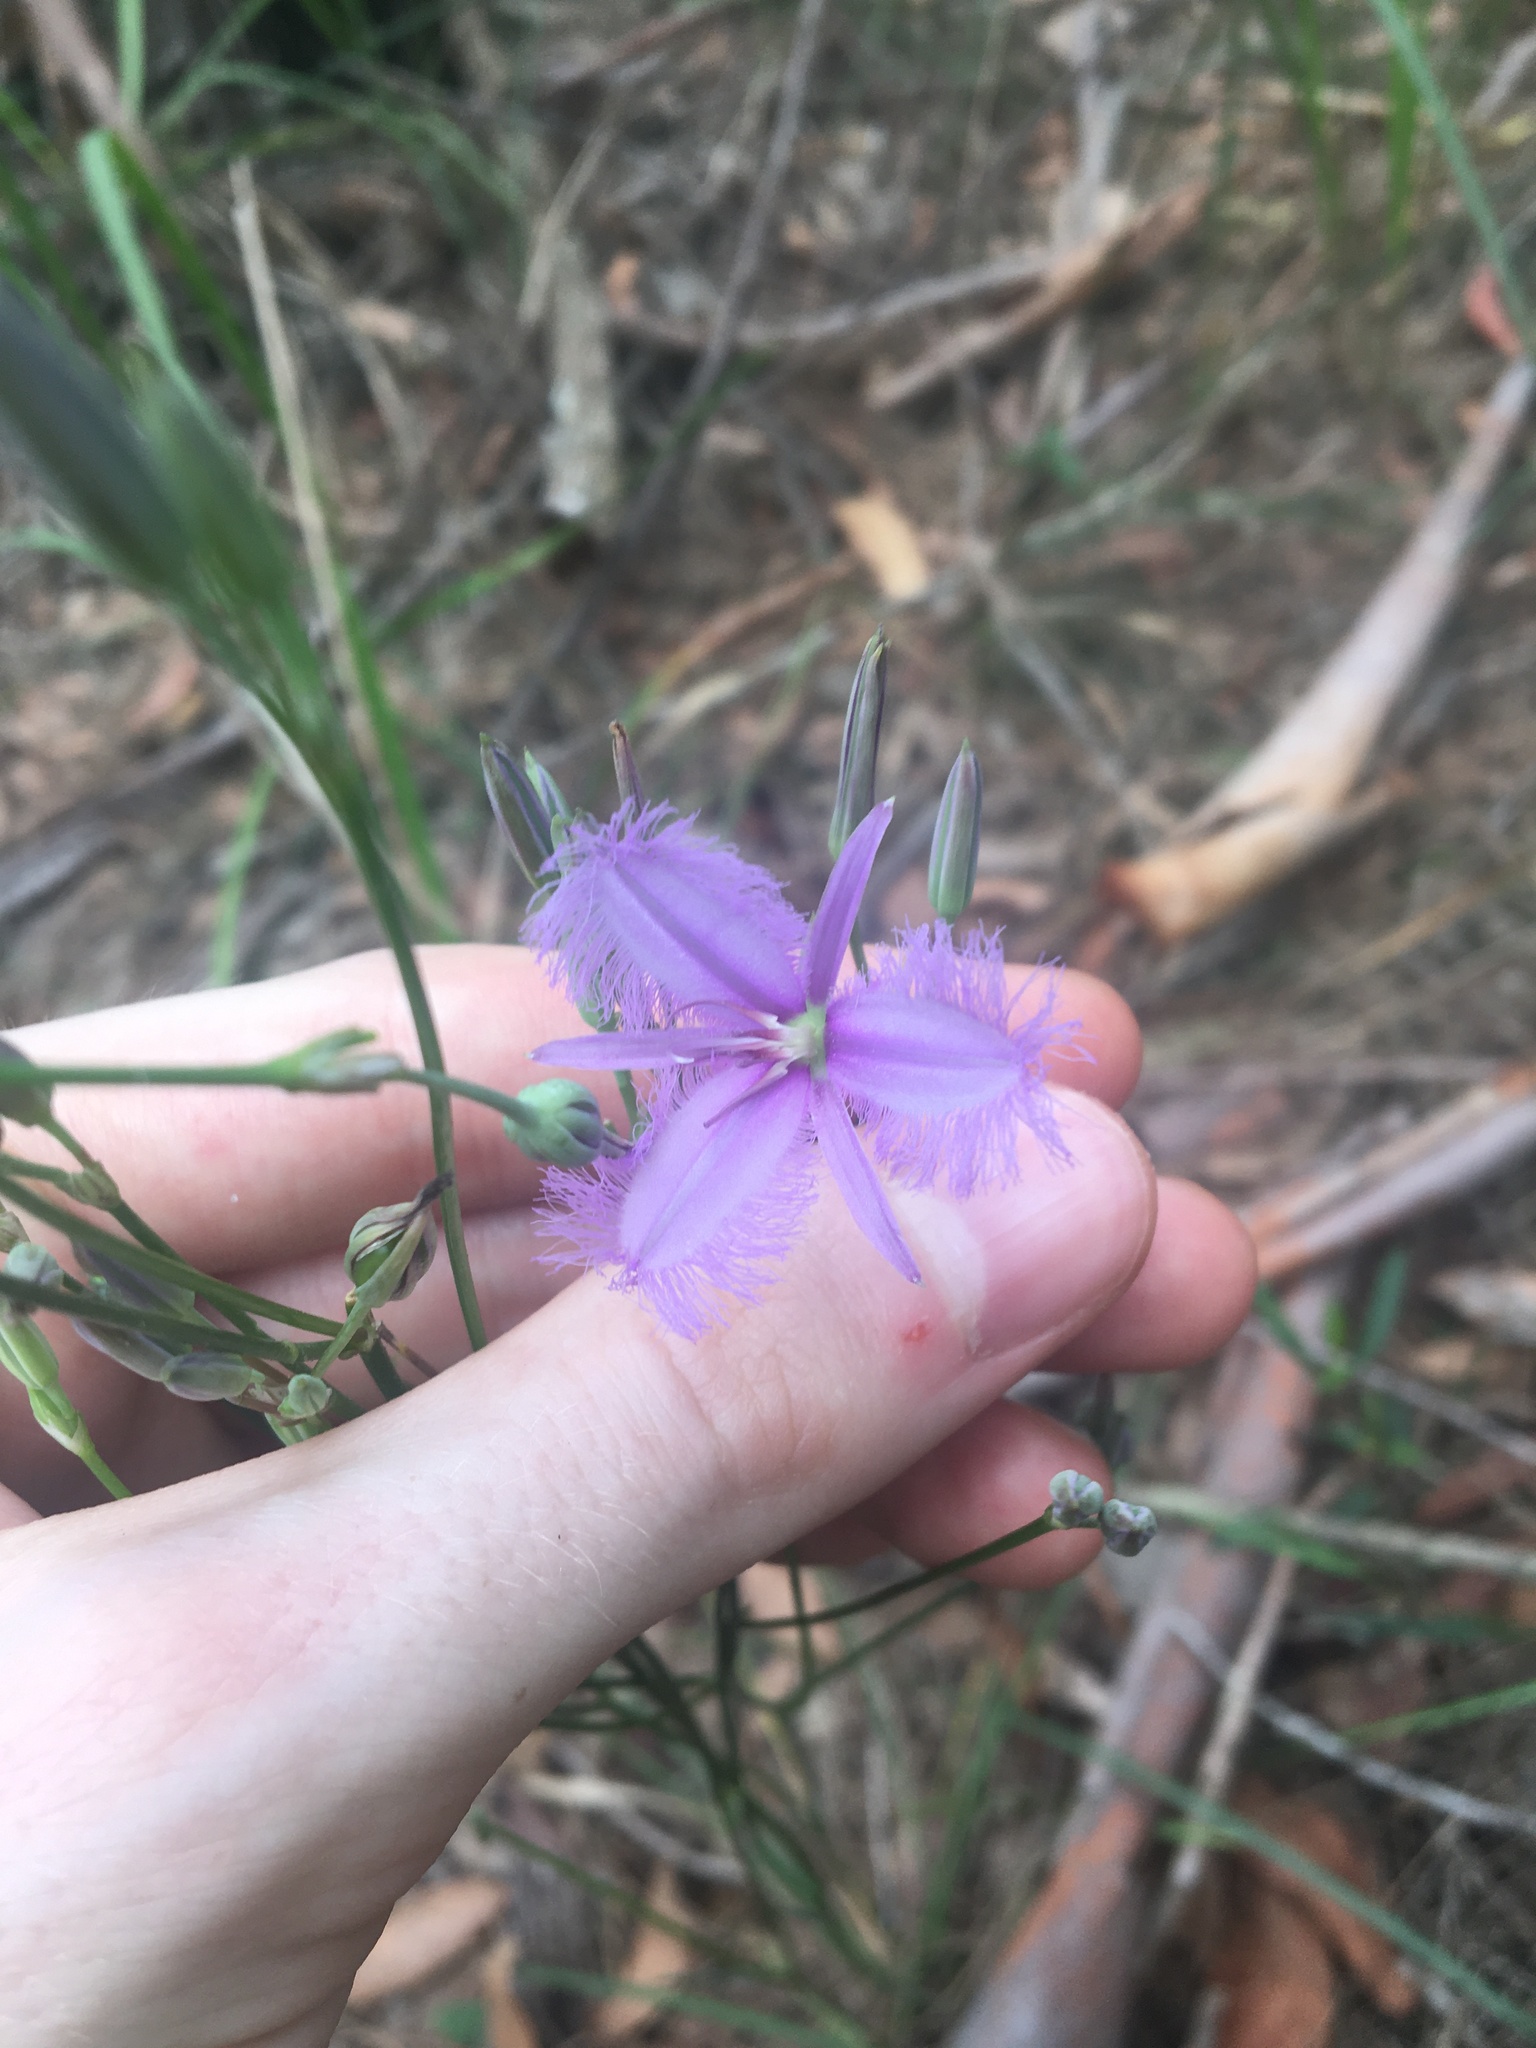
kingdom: Plantae
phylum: Tracheophyta
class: Liliopsida
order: Asparagales
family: Asparagaceae
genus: Thysanotus
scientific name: Thysanotus tuberosus
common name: Common fringed-lily
